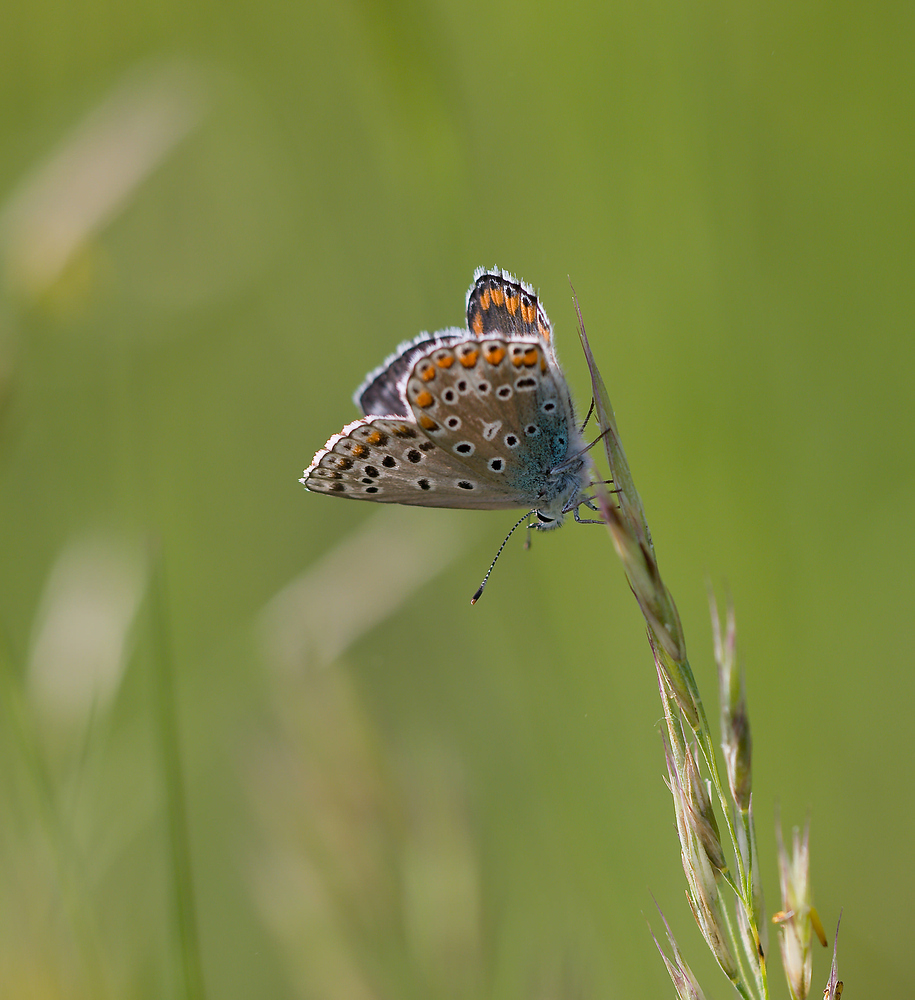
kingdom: Animalia
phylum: Arthropoda
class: Insecta
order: Lepidoptera
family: Lycaenidae
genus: Lysandra
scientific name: Lysandra bellargus
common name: Adonis blue
